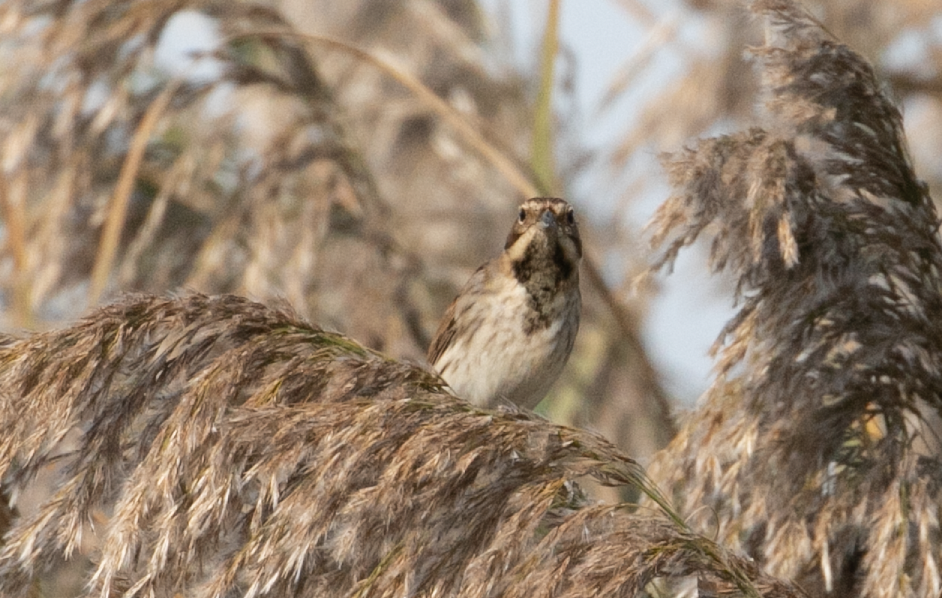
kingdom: Animalia
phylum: Chordata
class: Aves
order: Passeriformes
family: Emberizidae
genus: Emberiza
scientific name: Emberiza schoeniclus
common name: Reed bunting
